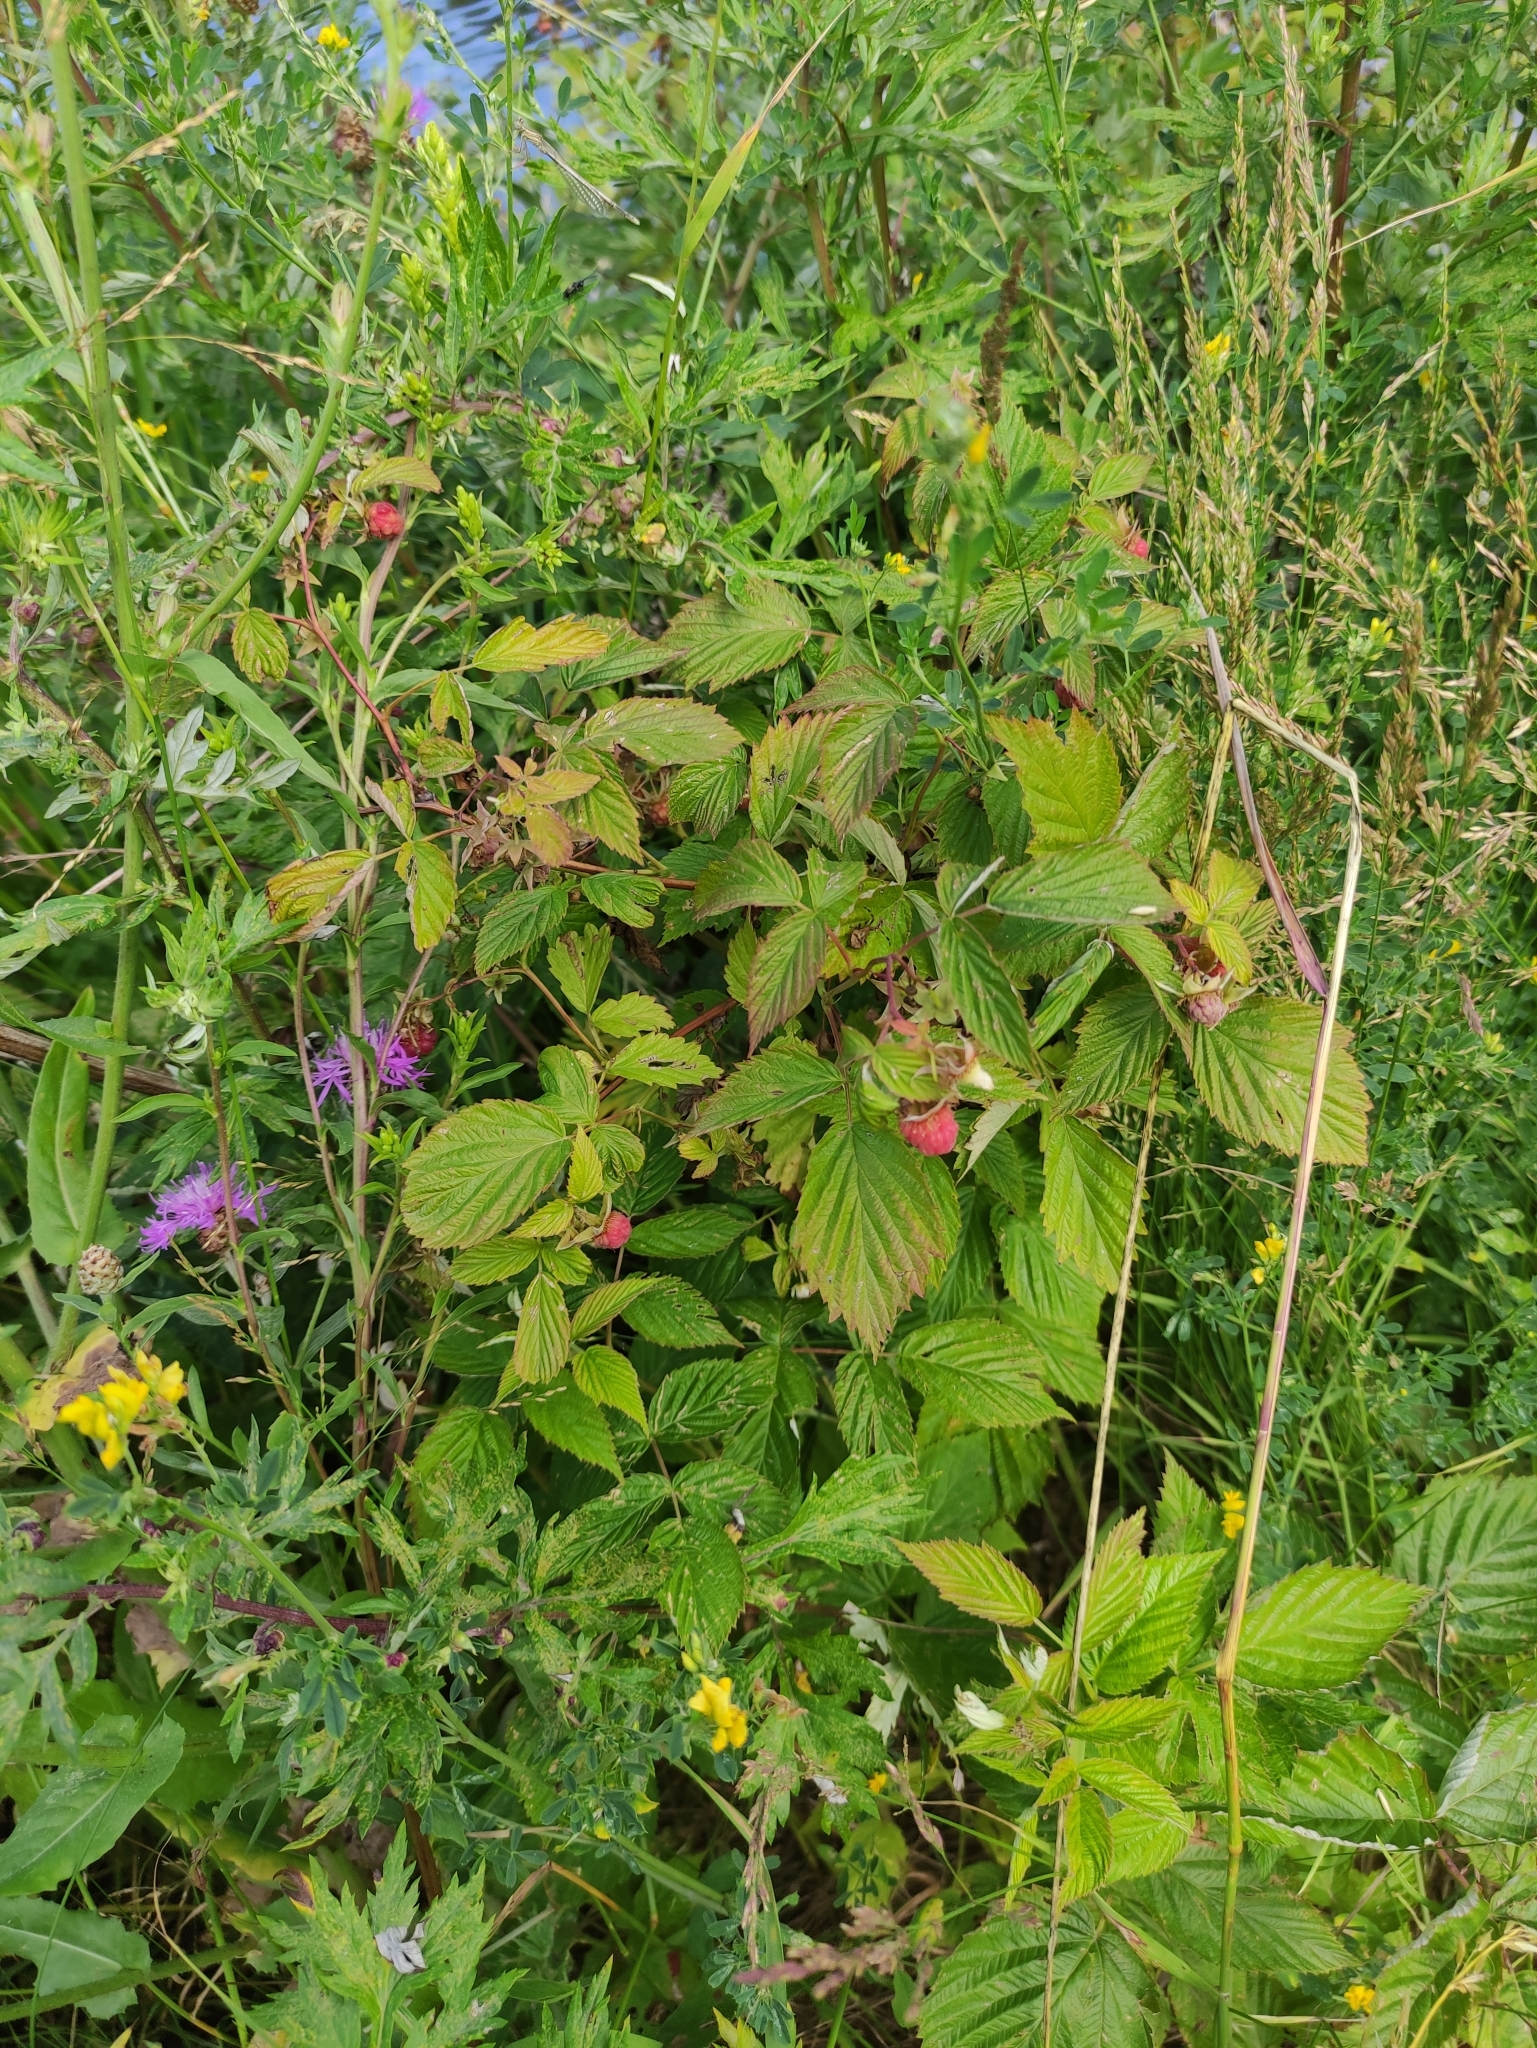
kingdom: Plantae
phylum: Tracheophyta
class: Magnoliopsida
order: Rosales
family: Rosaceae
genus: Rubus
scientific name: Rubus idaeus
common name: Raspberry
